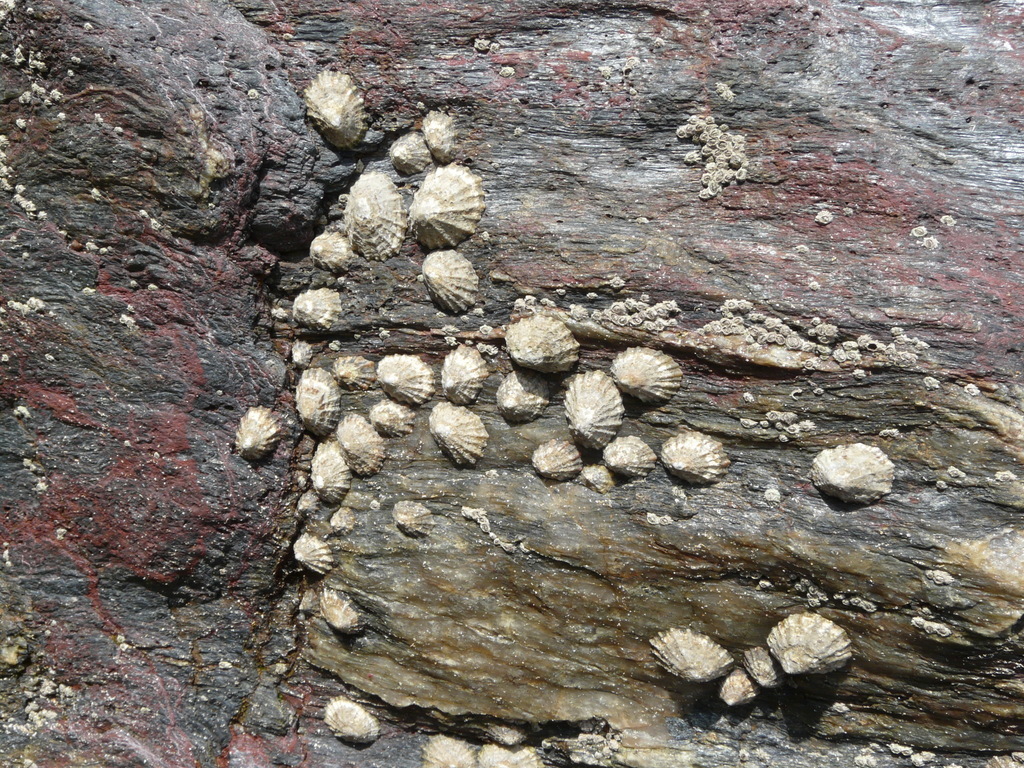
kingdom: Animalia
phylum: Mollusca
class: Gastropoda
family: Patellidae
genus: Patella
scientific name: Patella vulgata
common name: Common limpet
